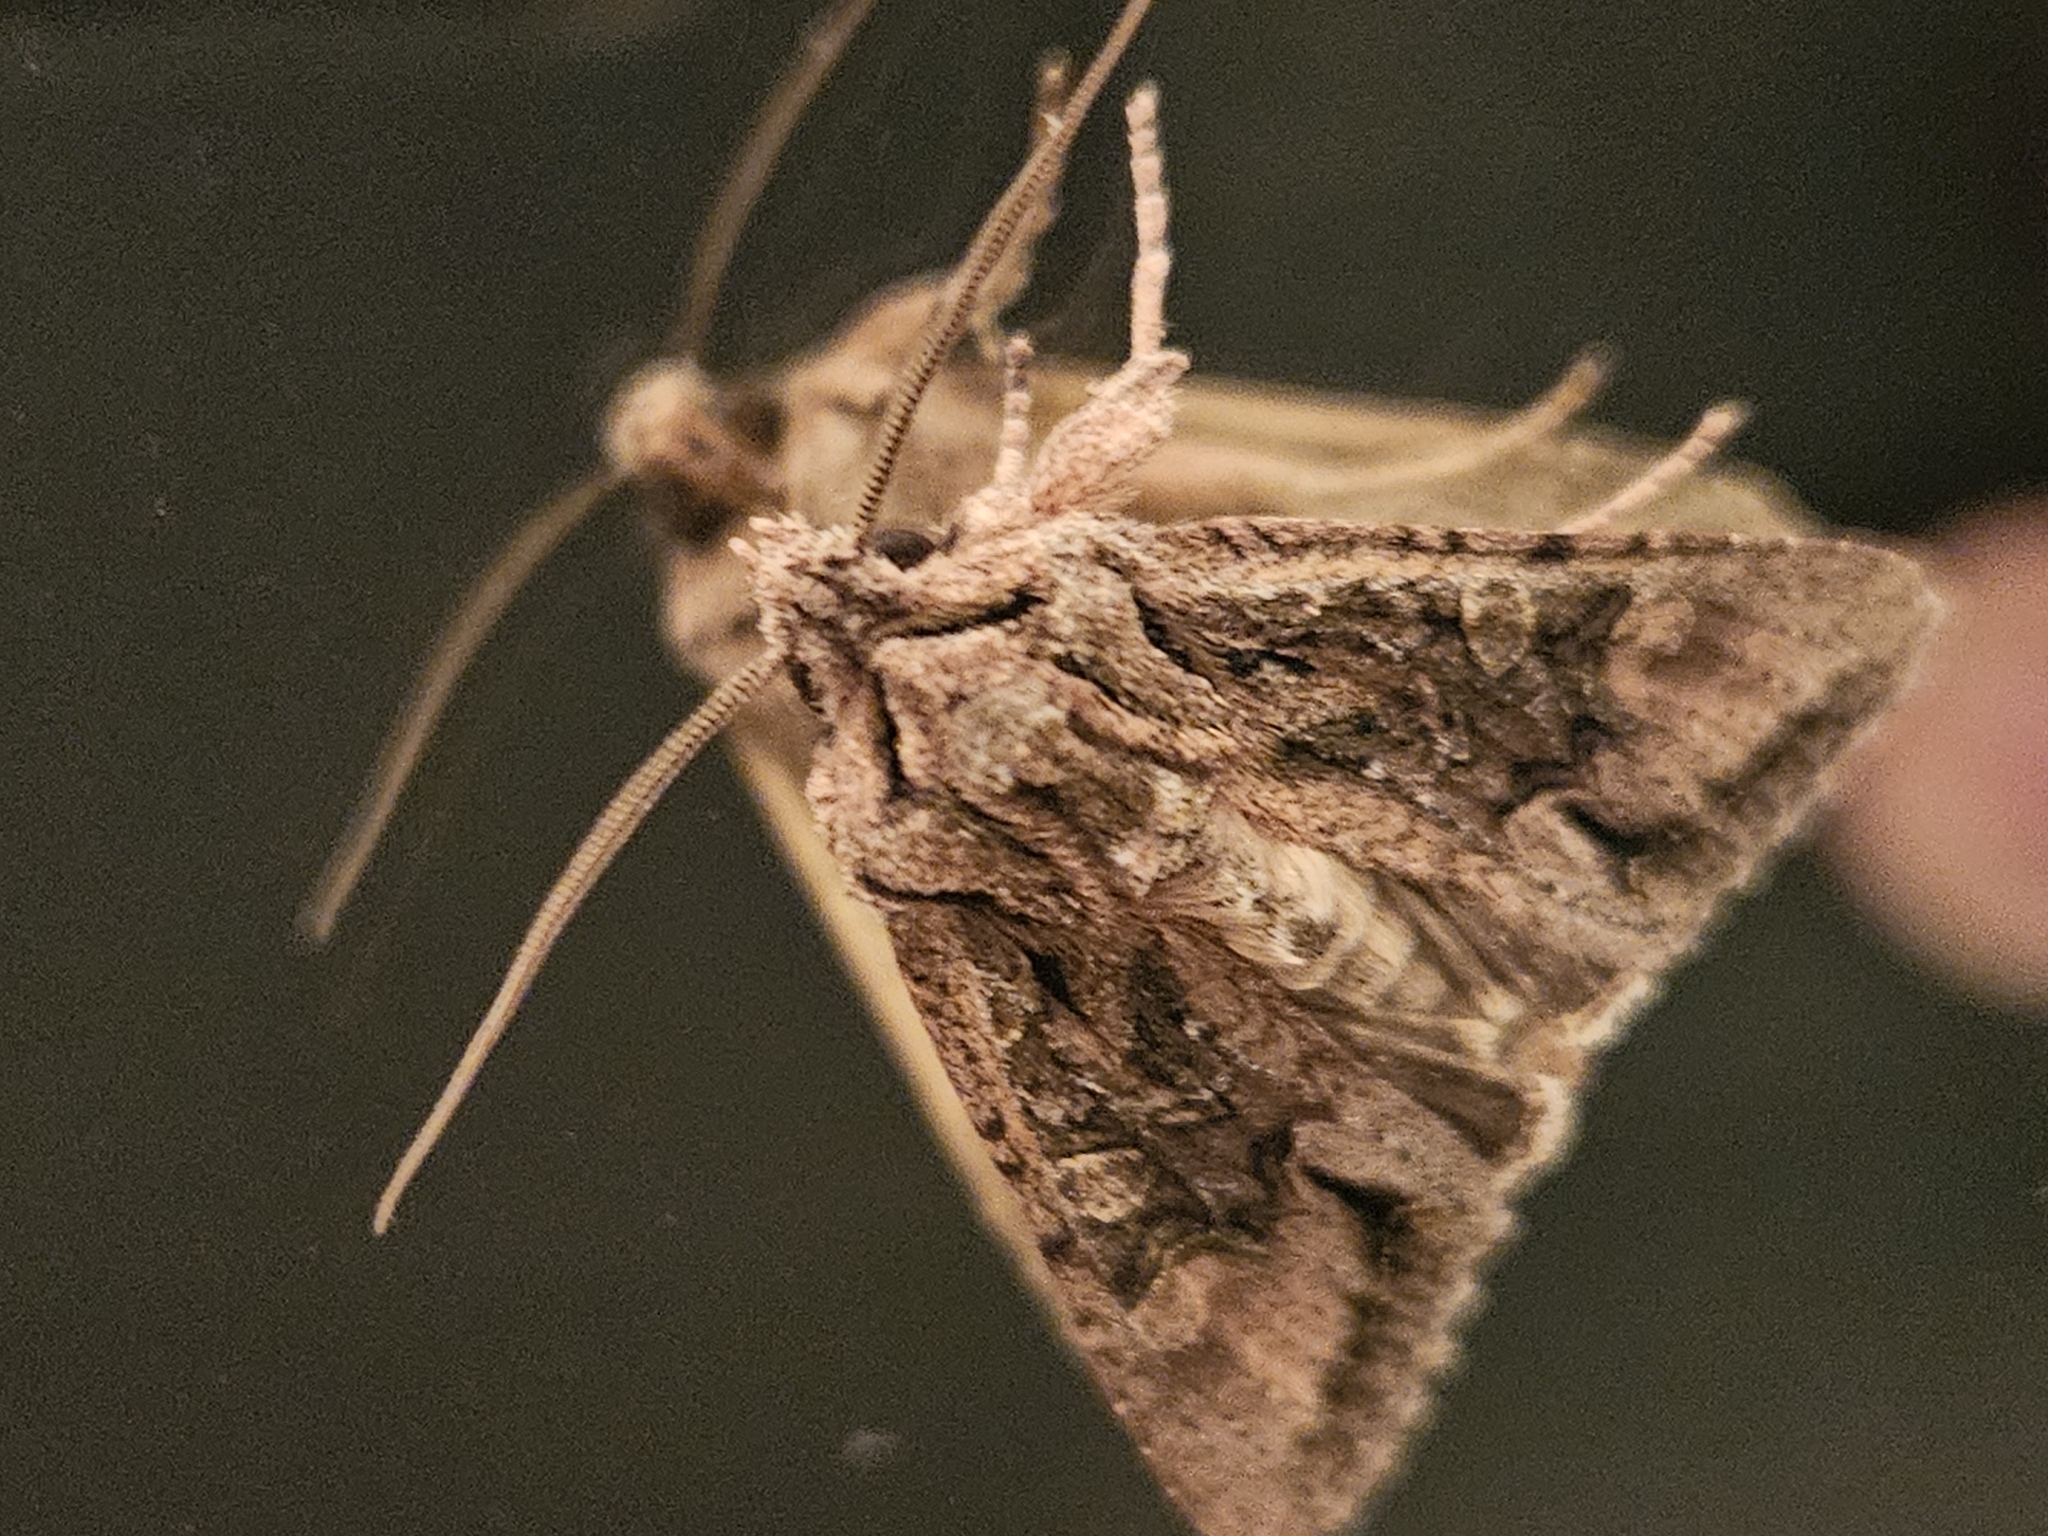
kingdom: Animalia
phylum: Arthropoda
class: Insecta
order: Lepidoptera
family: Noctuidae
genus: Ichneutica
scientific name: Ichneutica mutans
